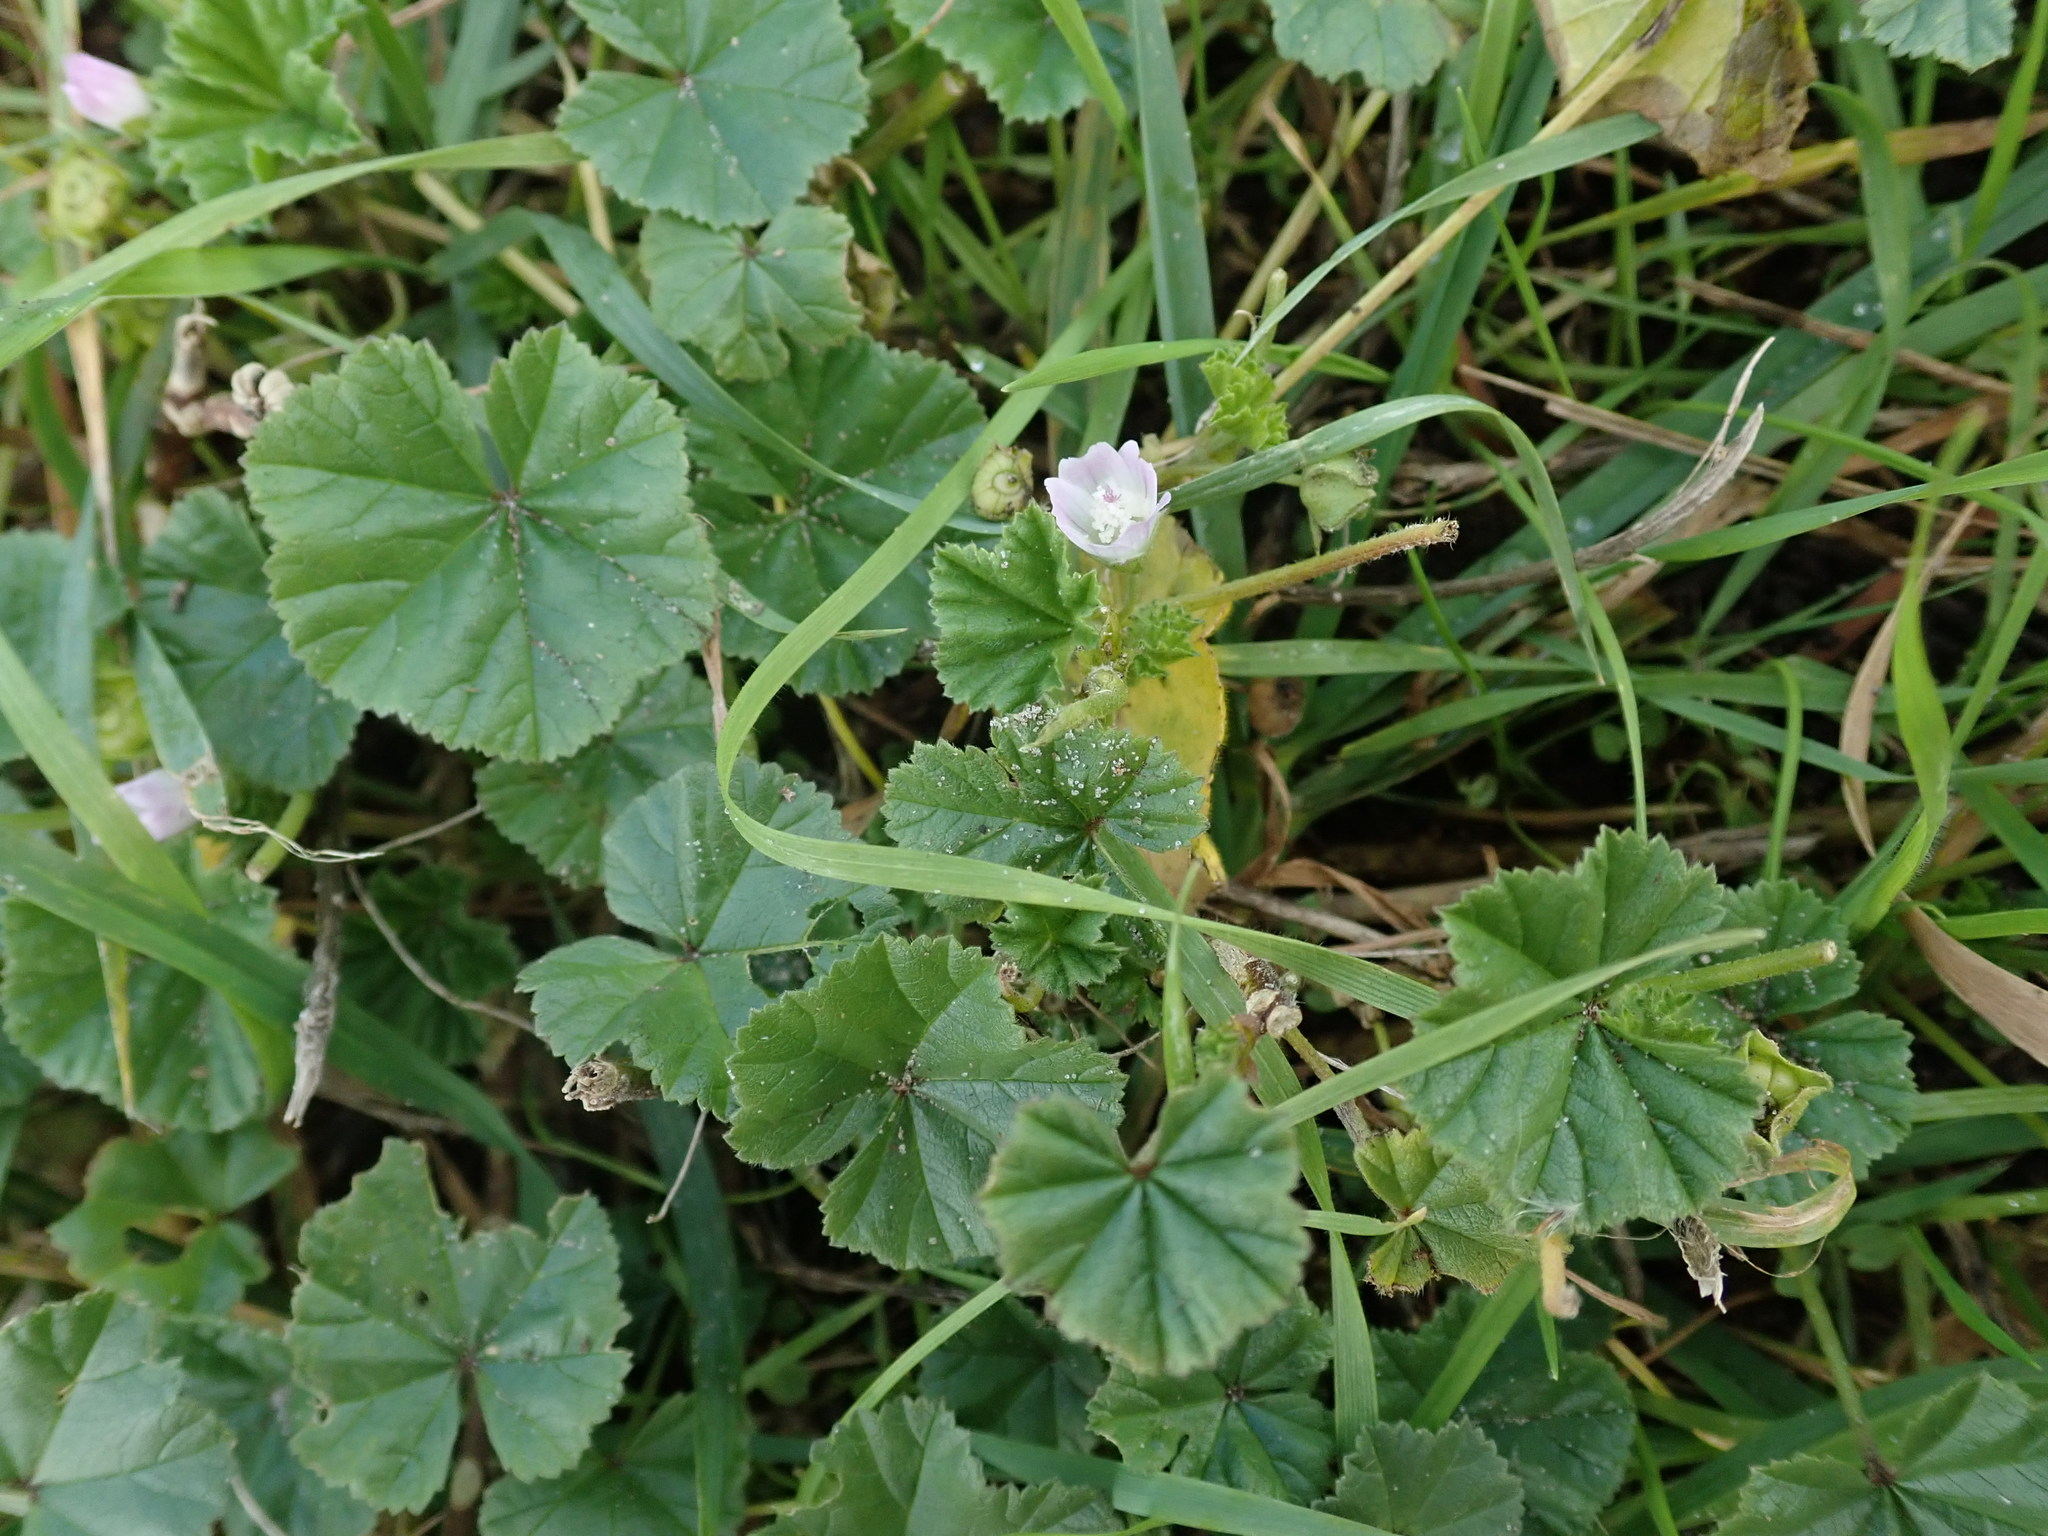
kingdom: Plantae
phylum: Tracheophyta
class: Magnoliopsida
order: Malvales
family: Malvaceae
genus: Malva
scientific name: Malva neglecta
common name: Common mallow
